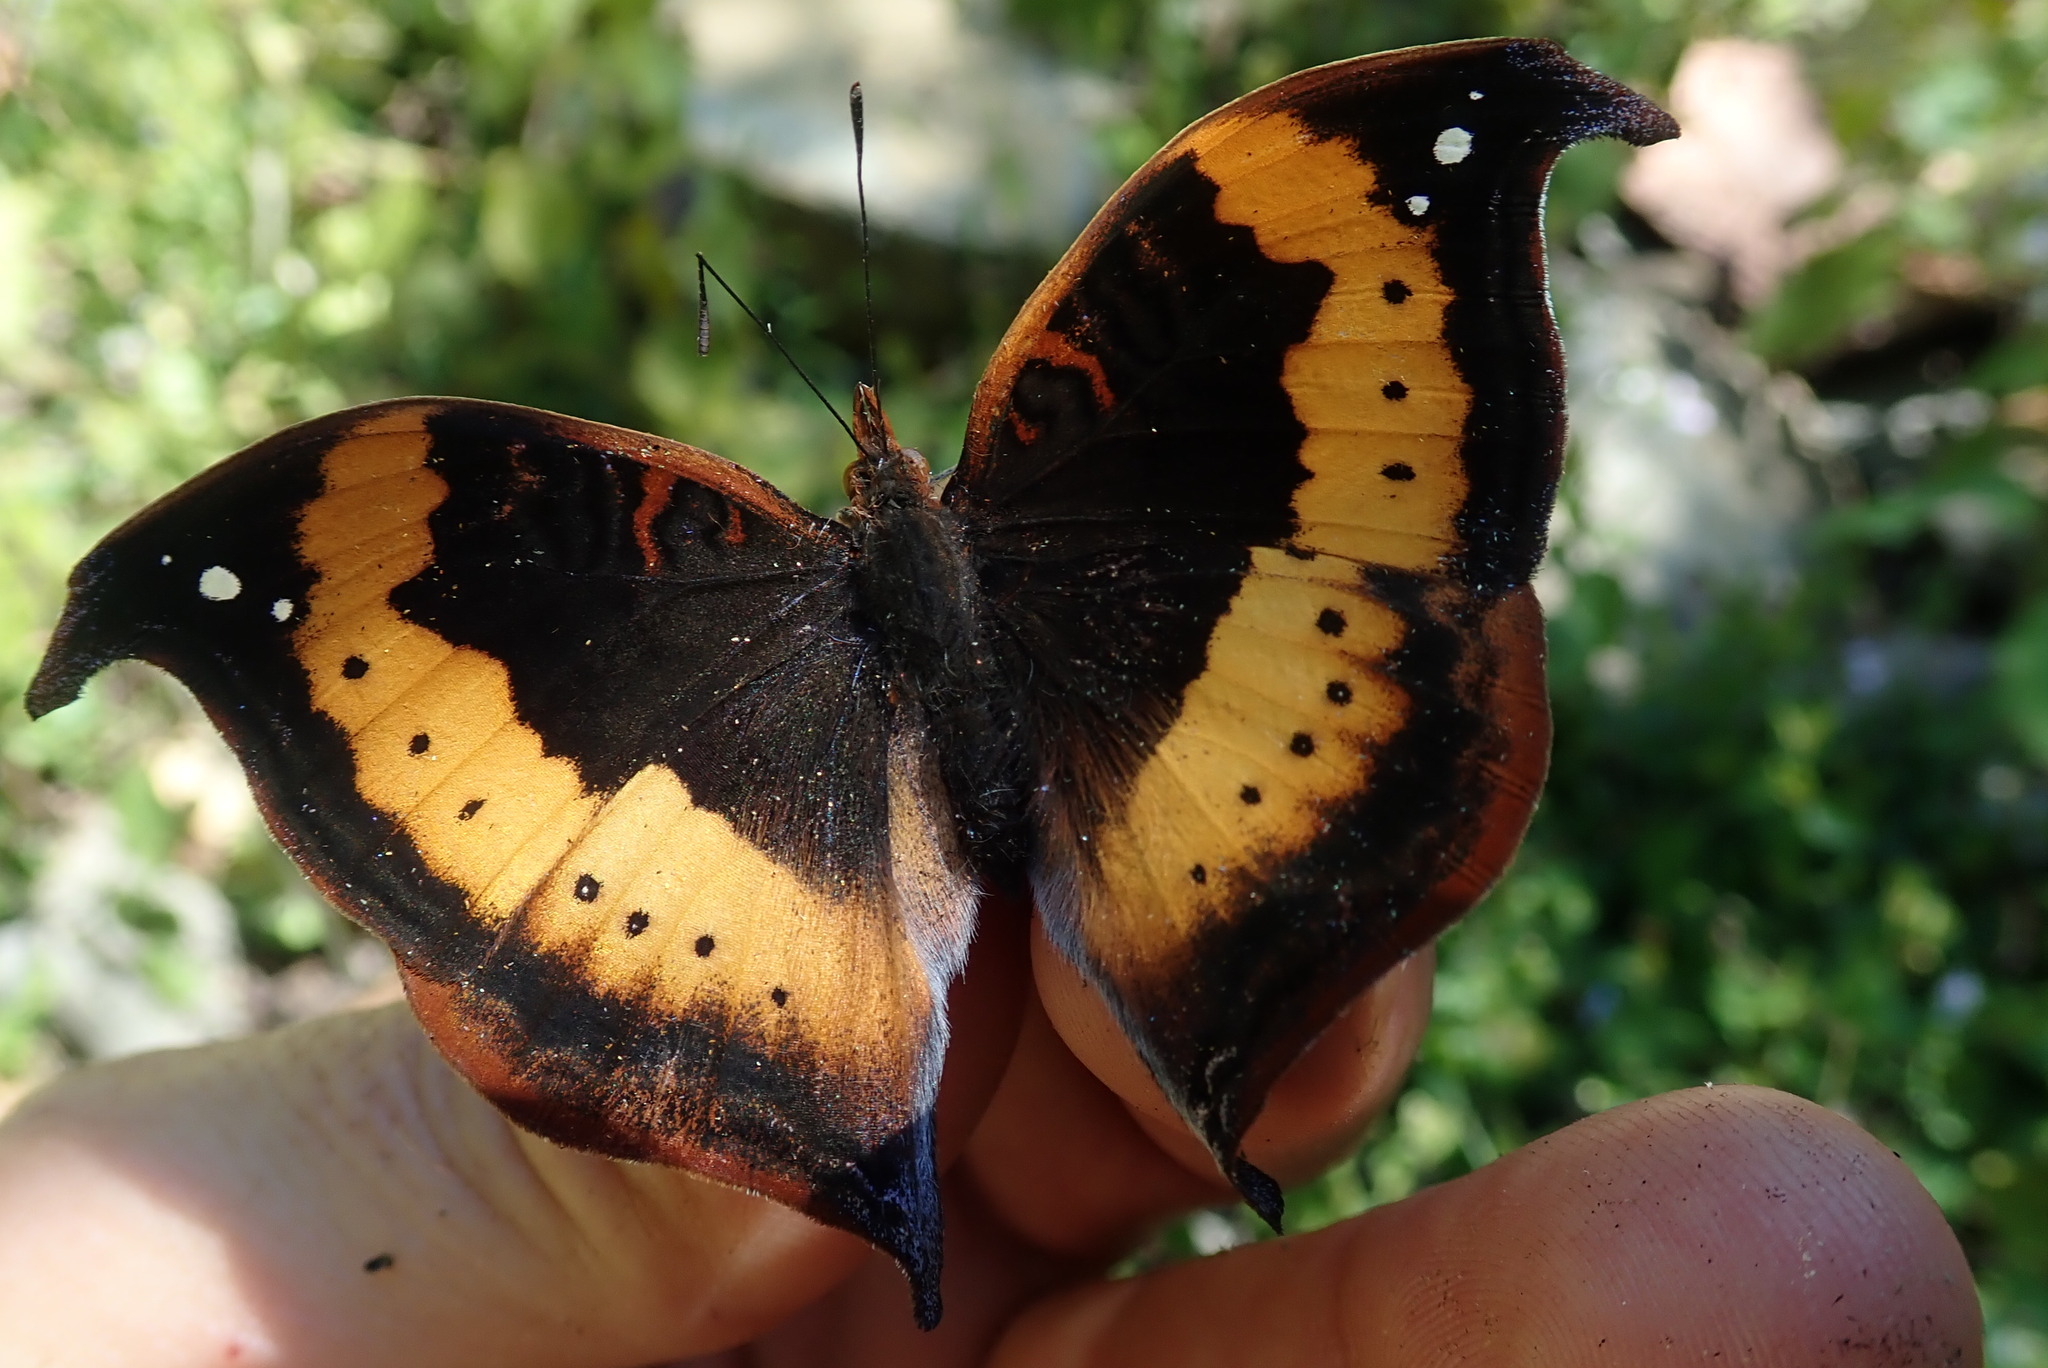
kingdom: Animalia
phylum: Arthropoda
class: Insecta
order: Lepidoptera
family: Nymphalidae
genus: Junonia
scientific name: Junonia tugela
